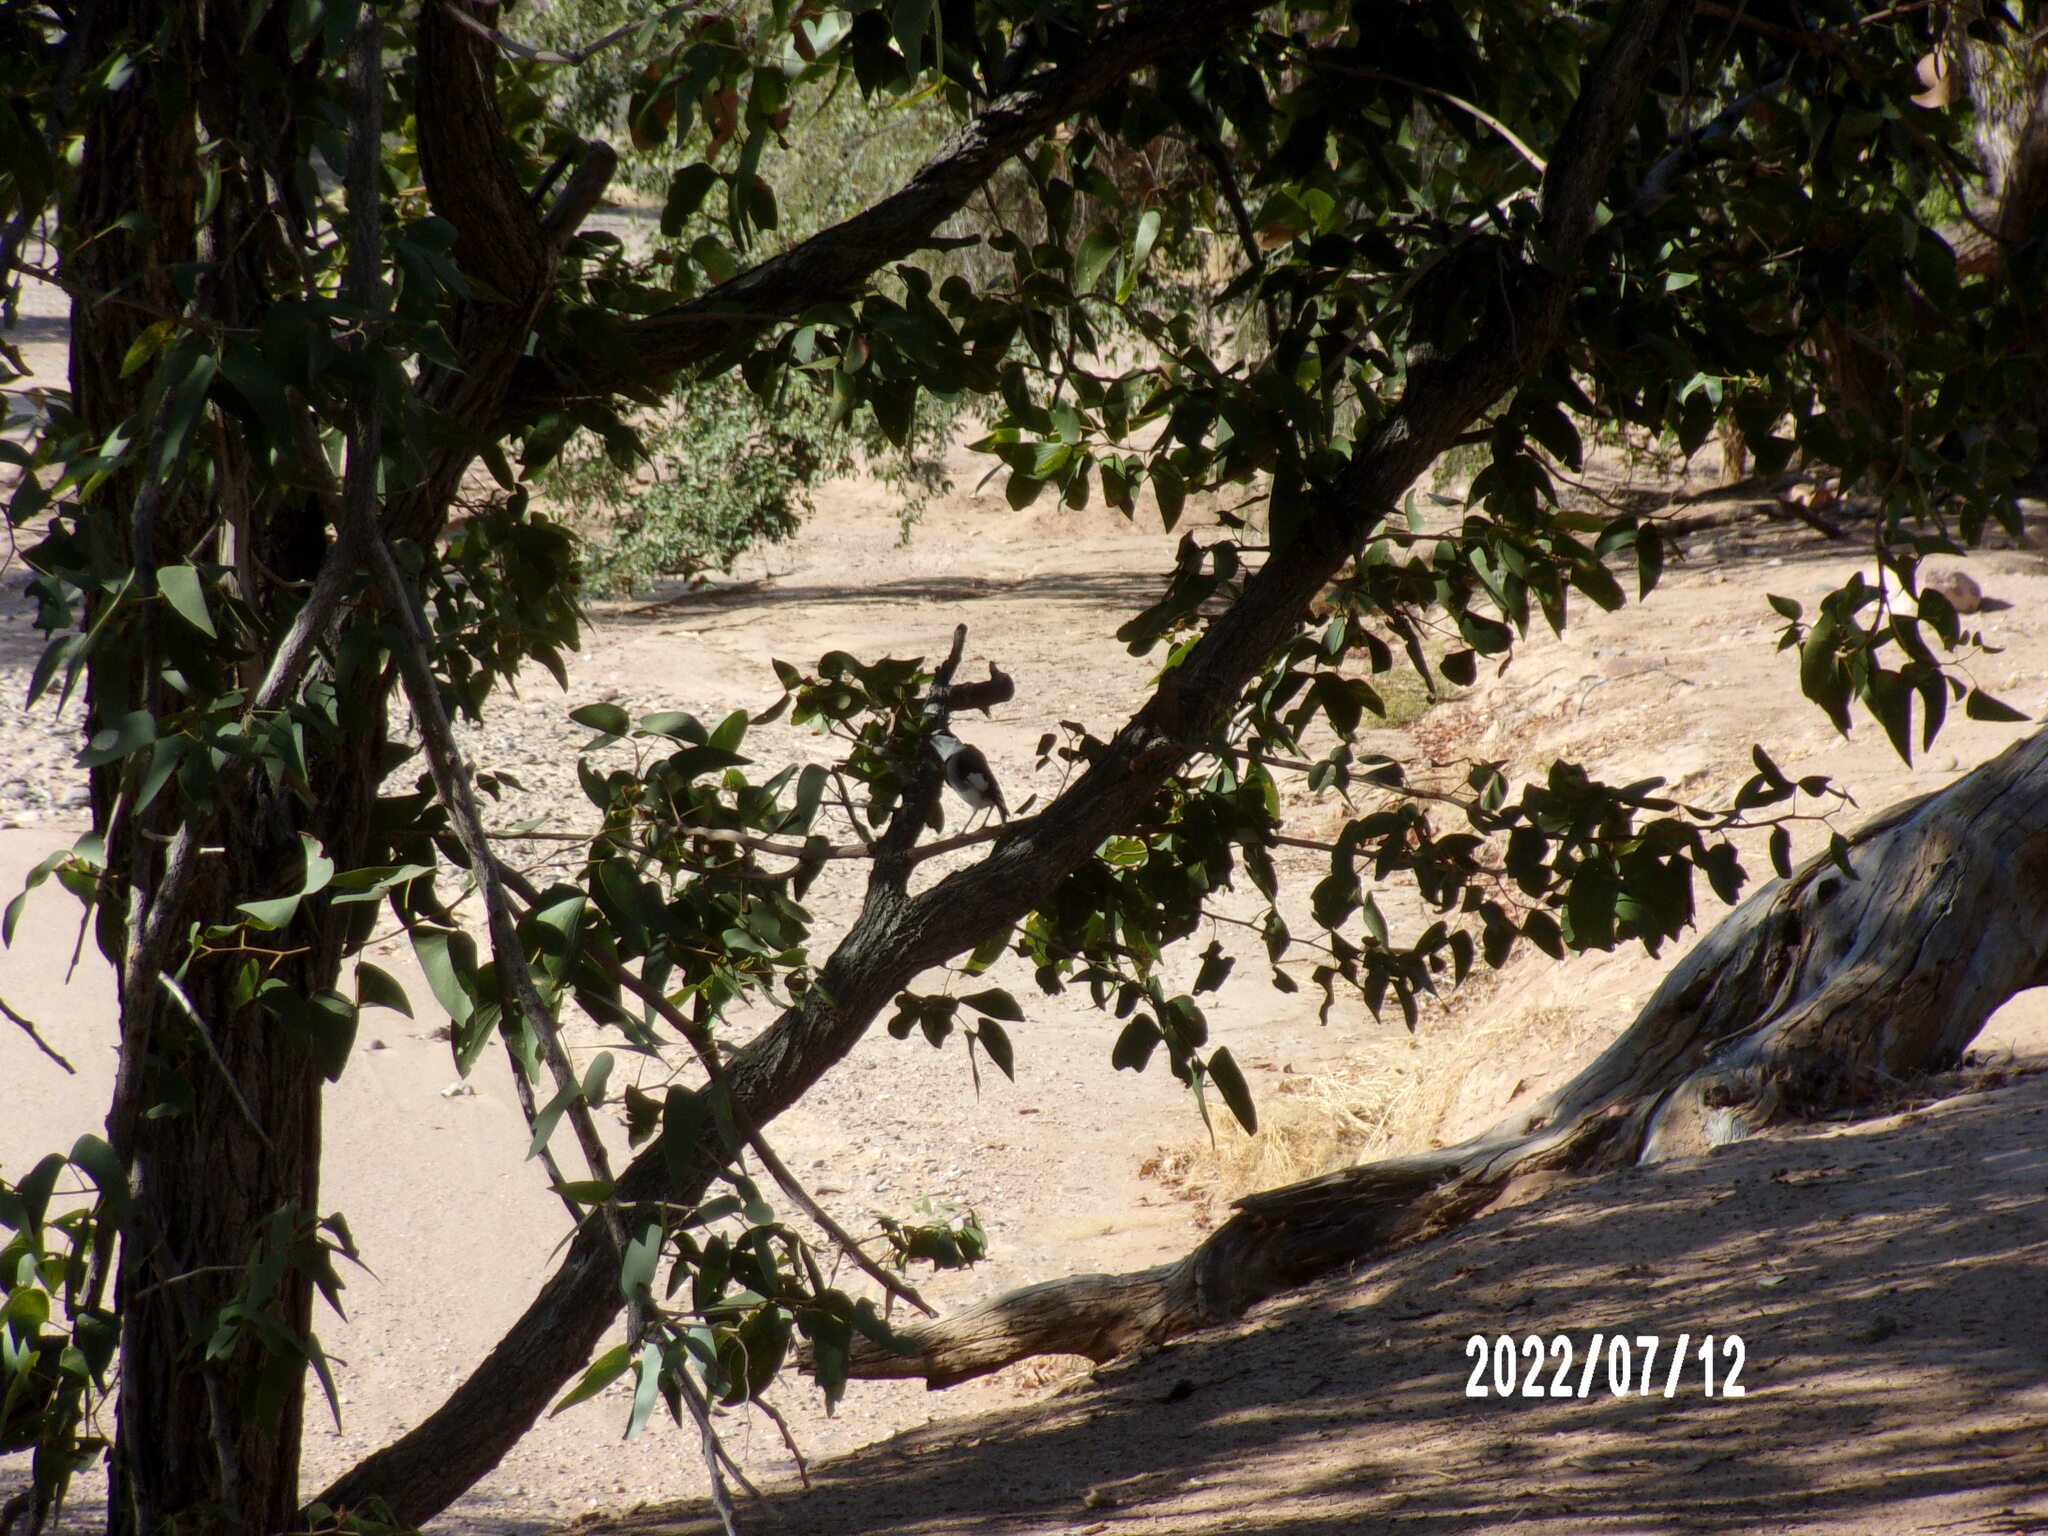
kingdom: Animalia
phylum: Chordata
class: Aves
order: Passeriformes
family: Platysteiridae
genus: Lanioturdus
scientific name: Lanioturdus torquatus
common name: White-tailed shrike
